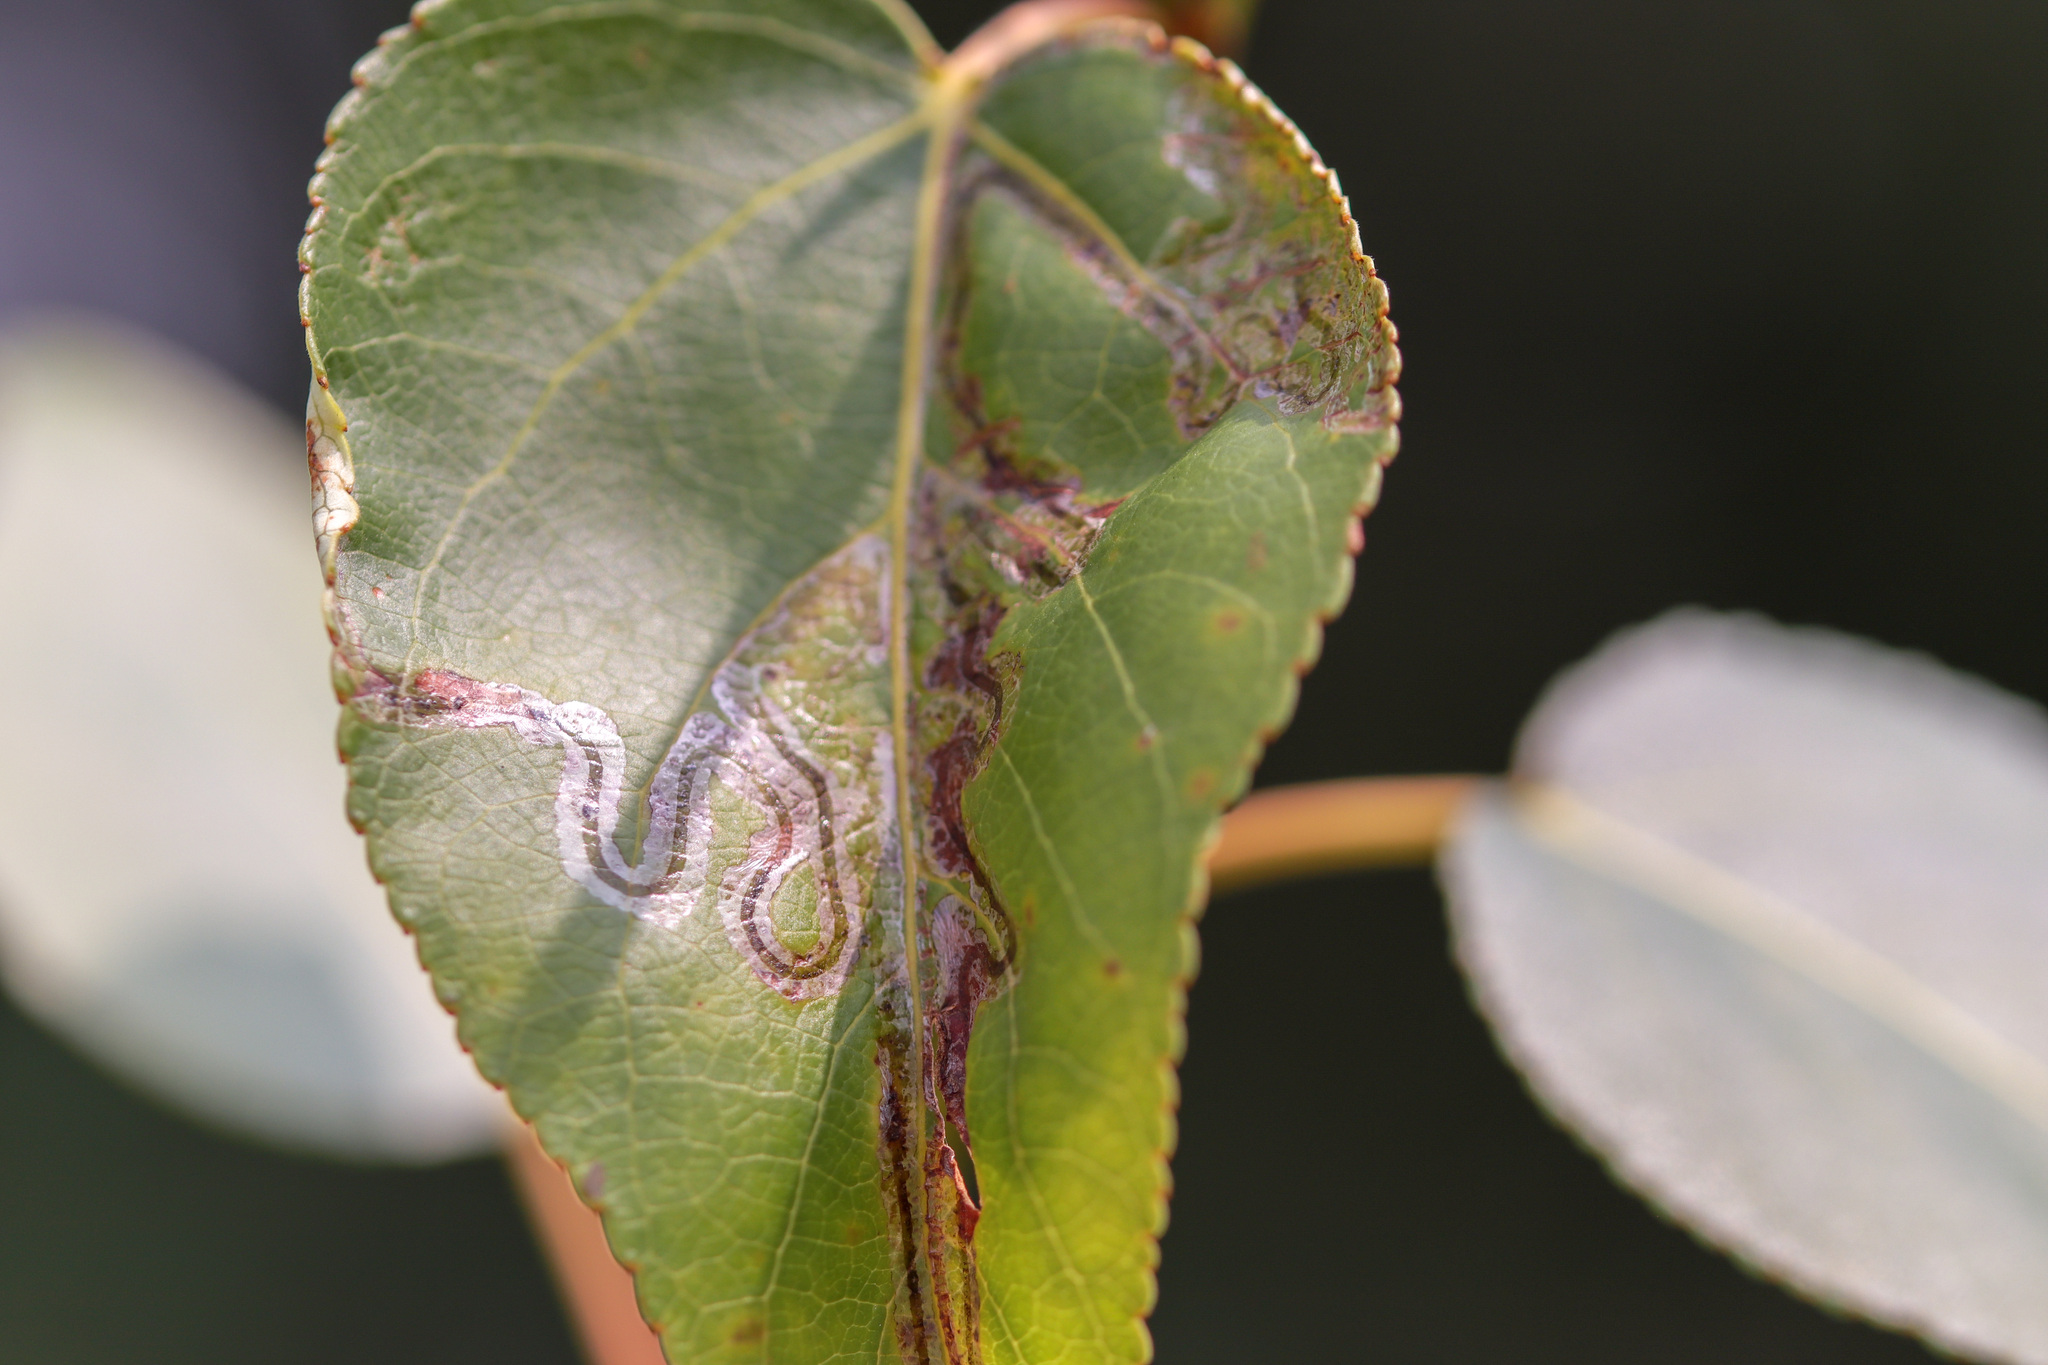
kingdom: Animalia
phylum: Arthropoda
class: Insecta
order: Lepidoptera
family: Gracillariidae
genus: Phyllocnistis
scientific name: Phyllocnistis populiella
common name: Aspen serpentine leafminer moth
